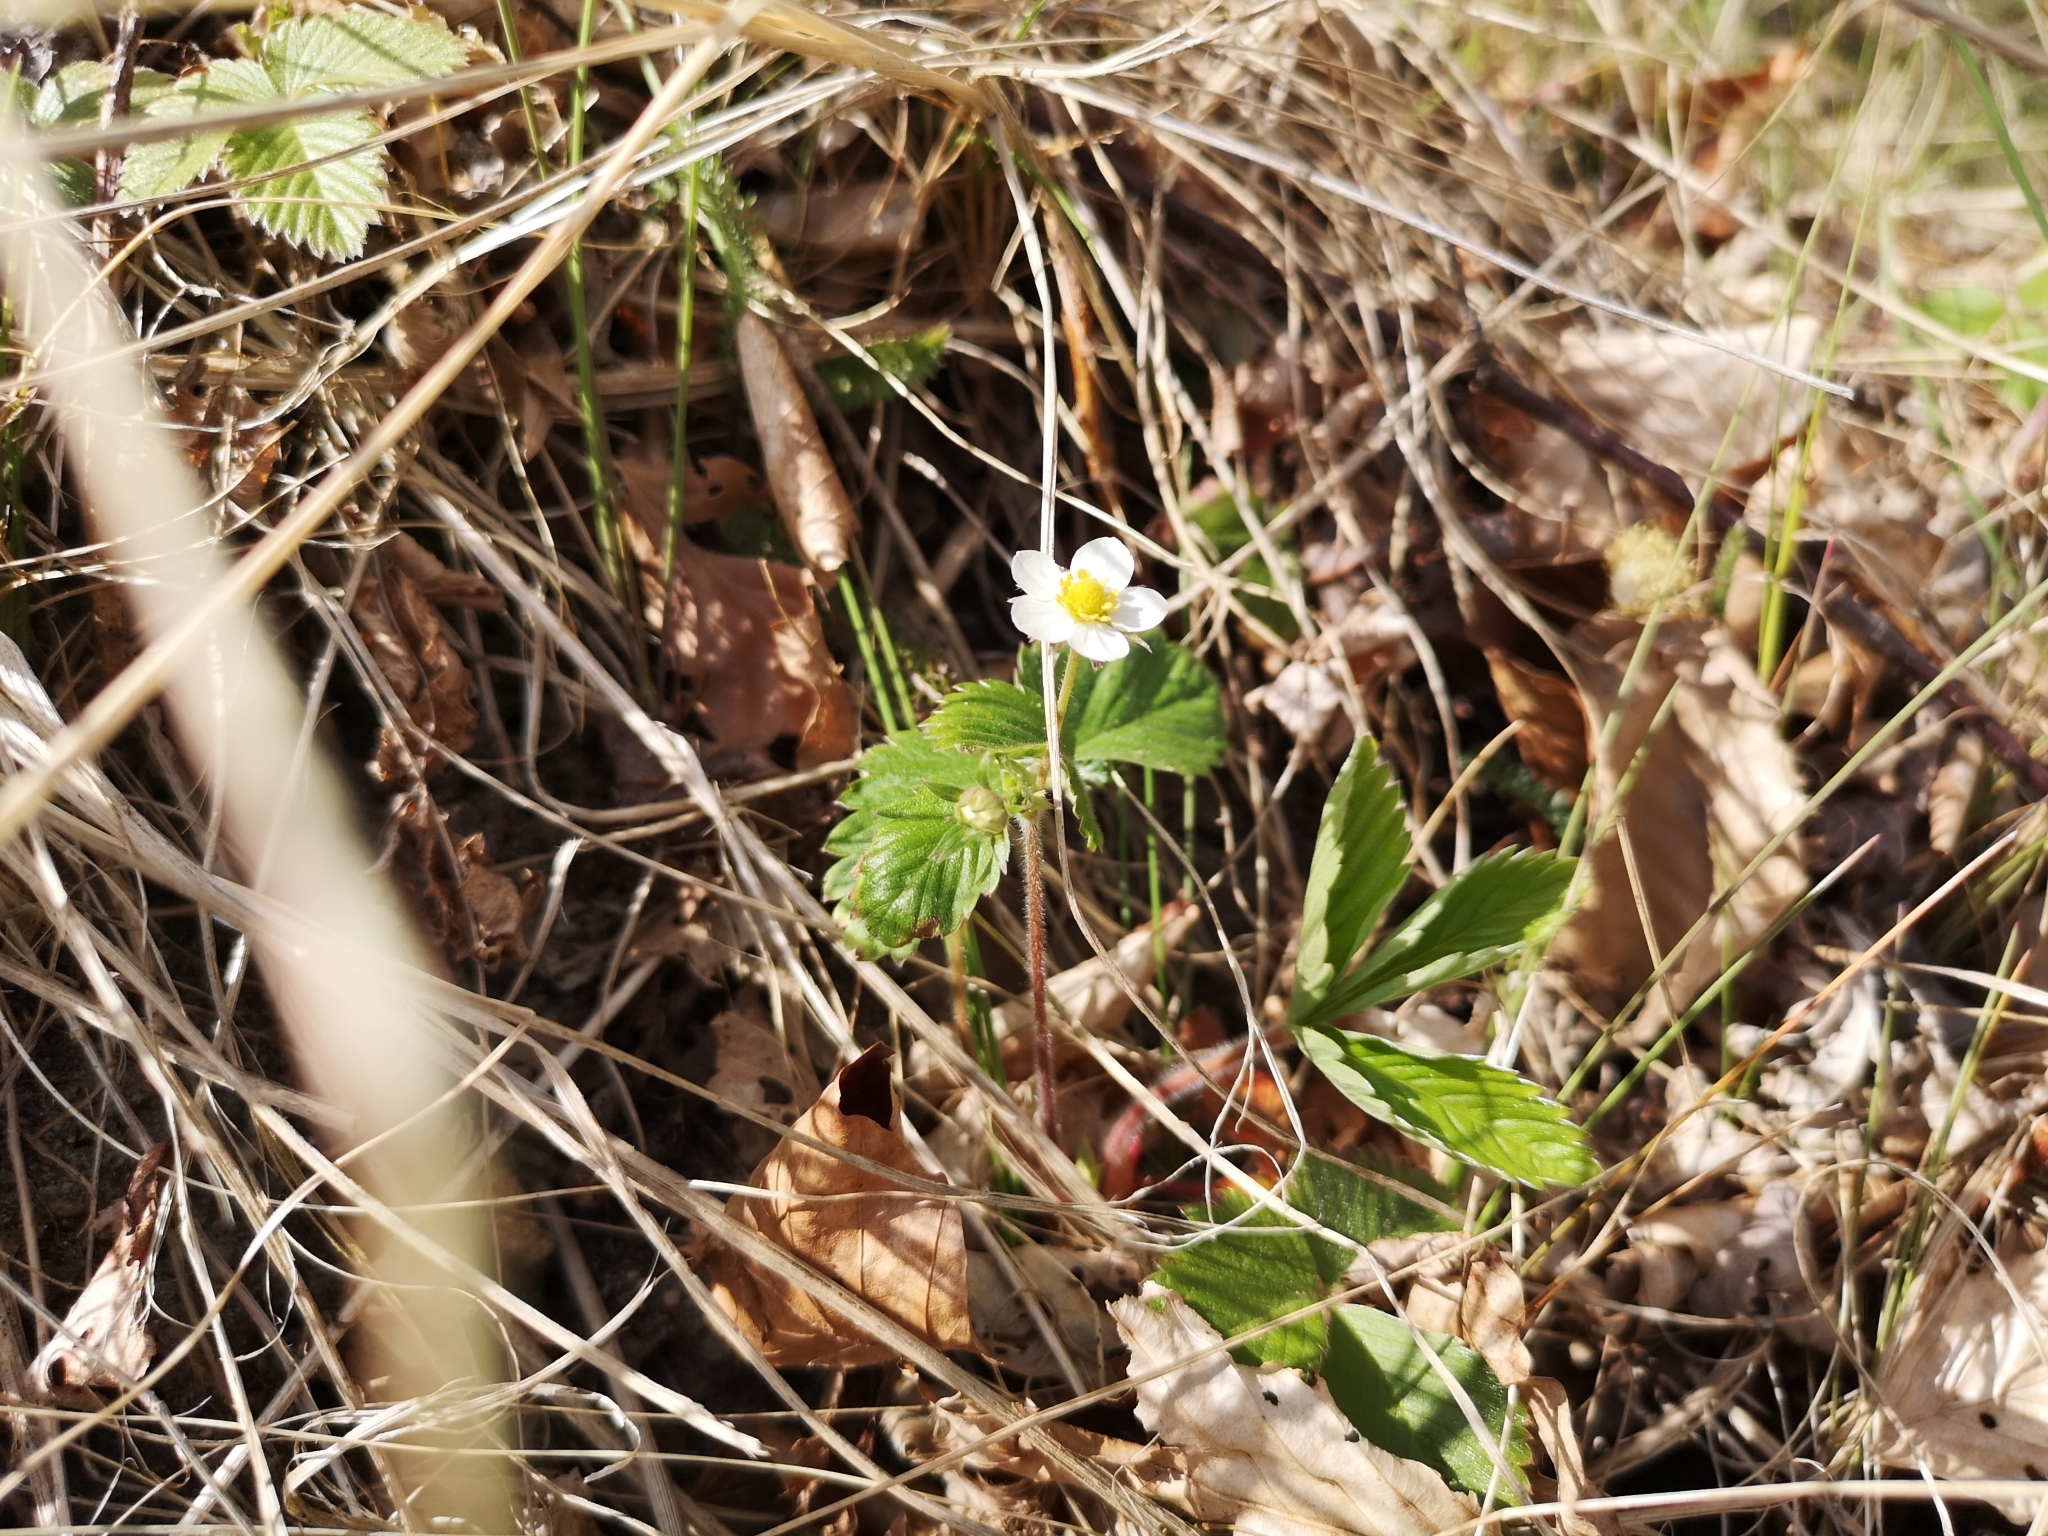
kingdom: Plantae
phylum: Tracheophyta
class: Magnoliopsida
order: Rosales
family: Rosaceae
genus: Fragaria
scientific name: Fragaria vesca
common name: Wild strawberry
